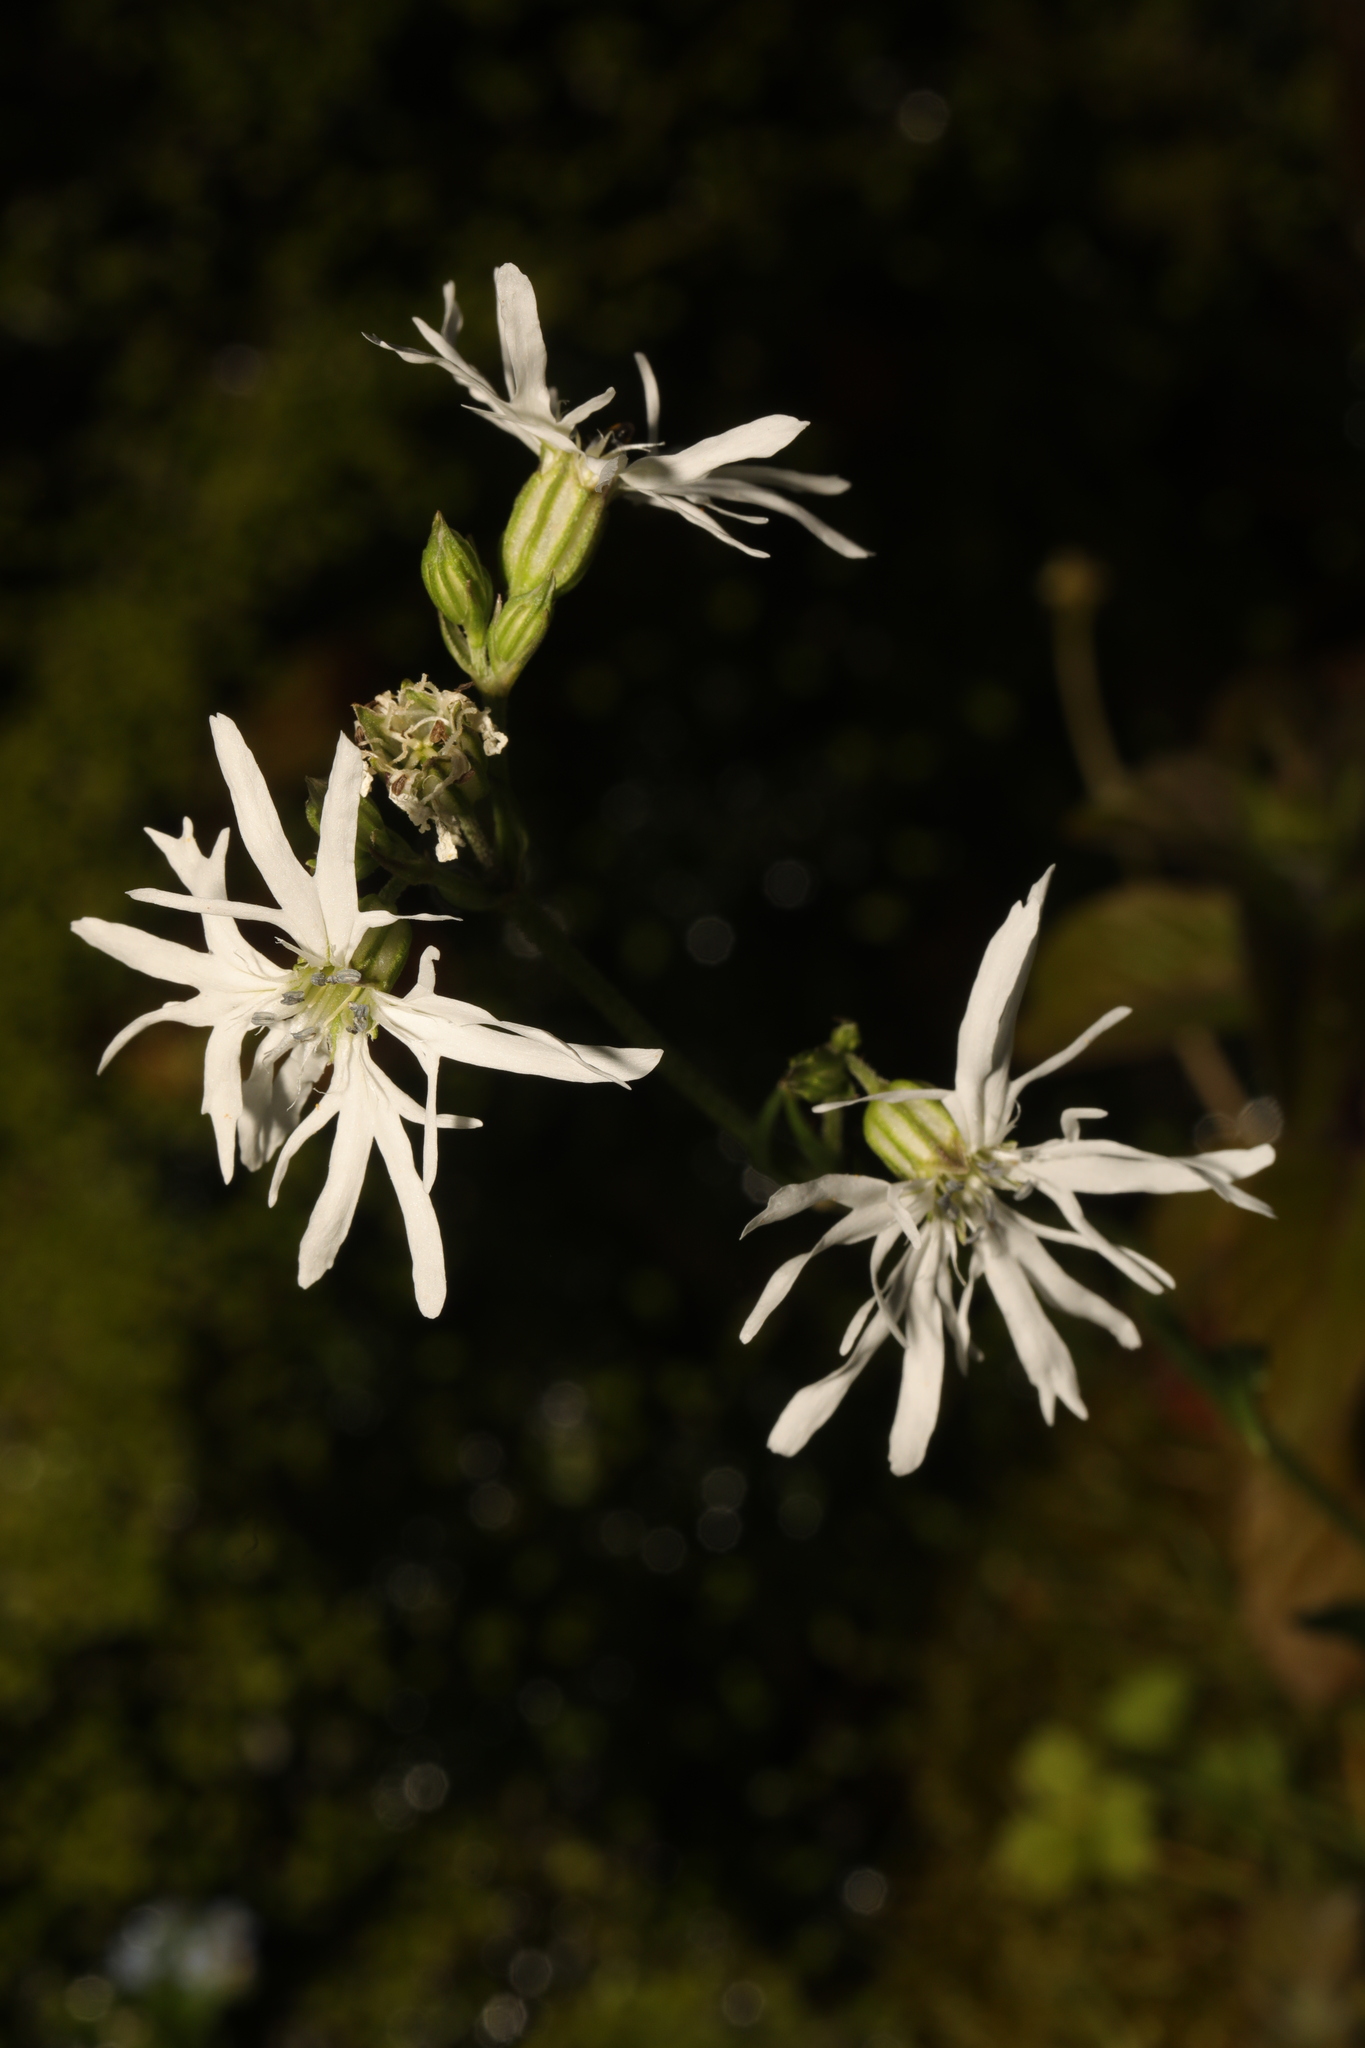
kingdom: Plantae
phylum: Tracheophyta
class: Magnoliopsida
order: Caryophyllales
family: Caryophyllaceae
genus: Silene
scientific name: Silene flos-cuculi
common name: Ragged-robin
